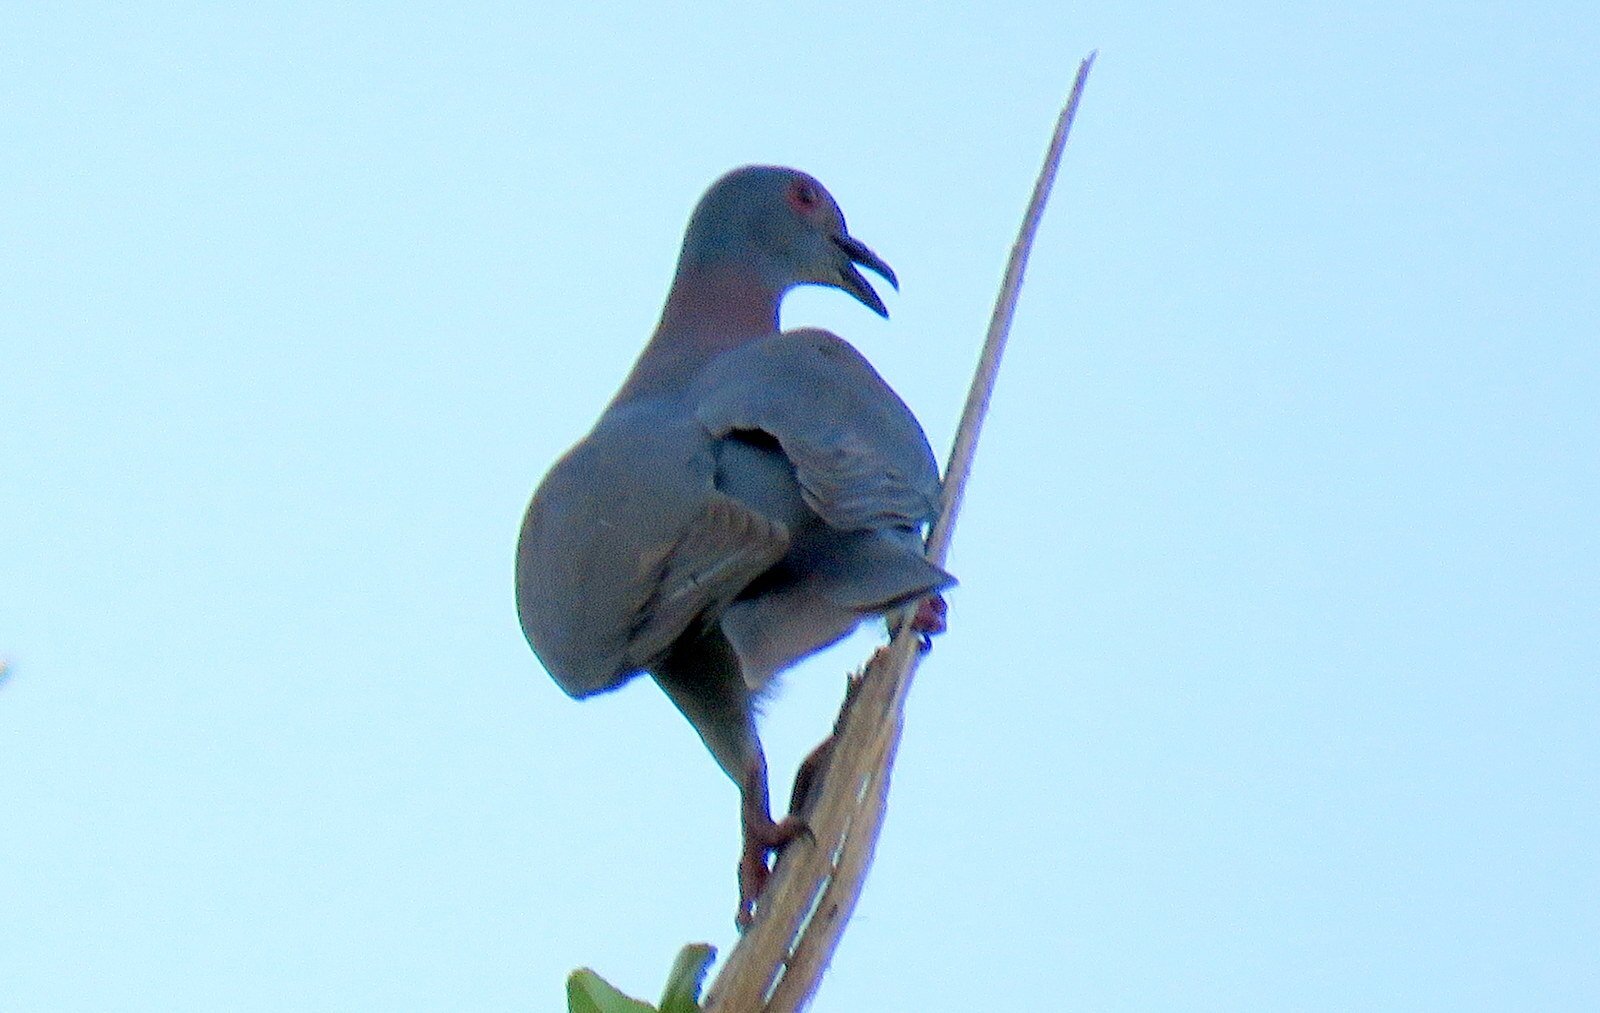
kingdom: Animalia
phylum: Chordata
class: Aves
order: Columbiformes
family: Columbidae
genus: Patagioenas
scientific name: Patagioenas cayennensis
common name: Pale-vented pigeon
